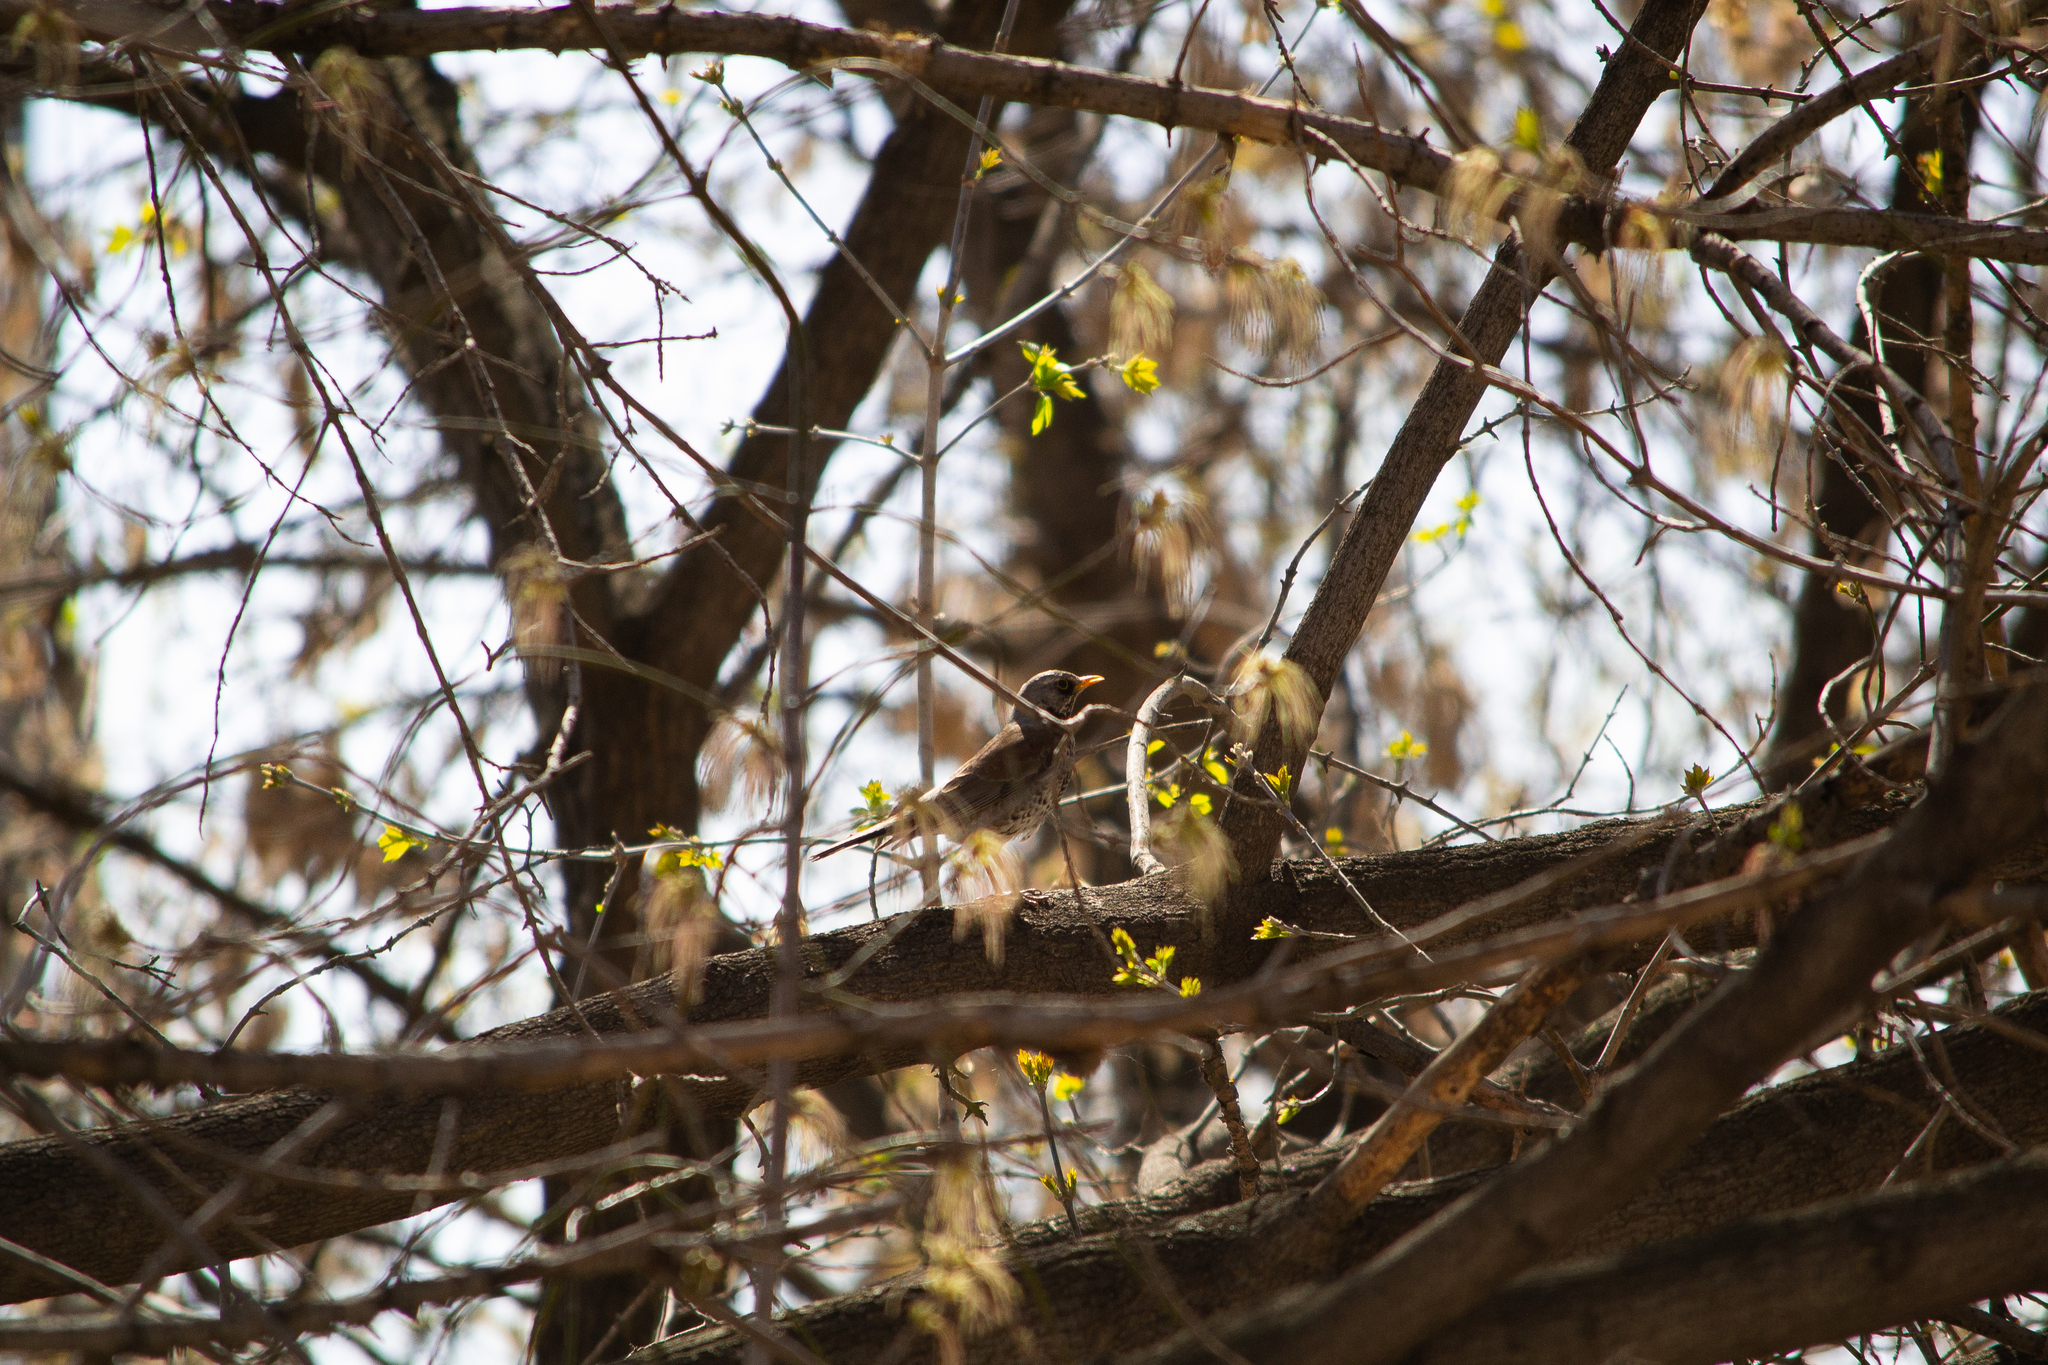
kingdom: Animalia
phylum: Chordata
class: Aves
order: Passeriformes
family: Turdidae
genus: Turdus
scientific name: Turdus pilaris
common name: Fieldfare
